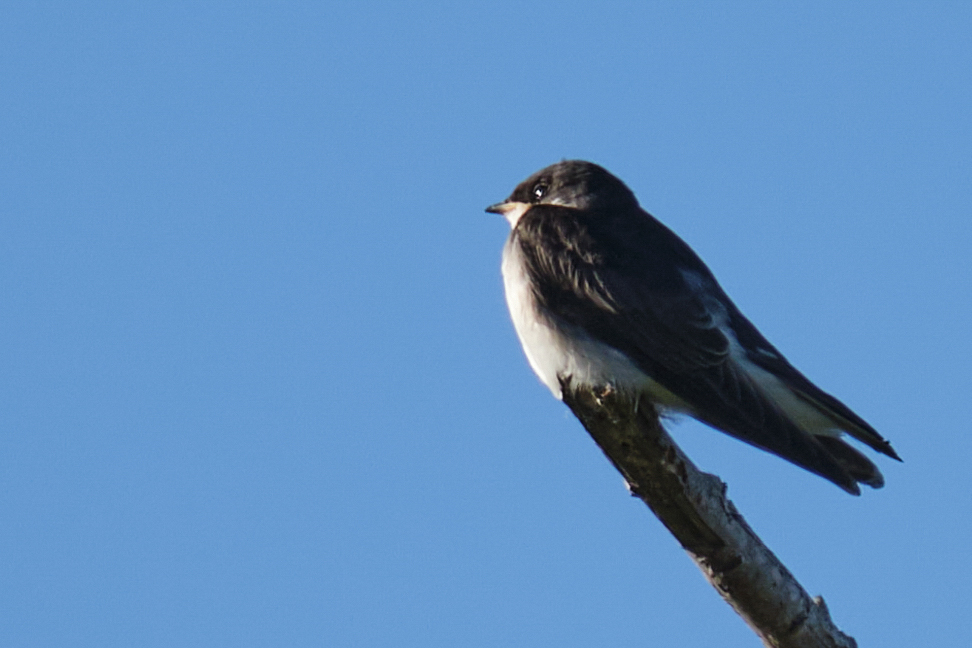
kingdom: Animalia
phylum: Chordata
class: Aves
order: Passeriformes
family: Hirundinidae
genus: Tachycineta
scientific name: Tachycineta bicolor
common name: Tree swallow
